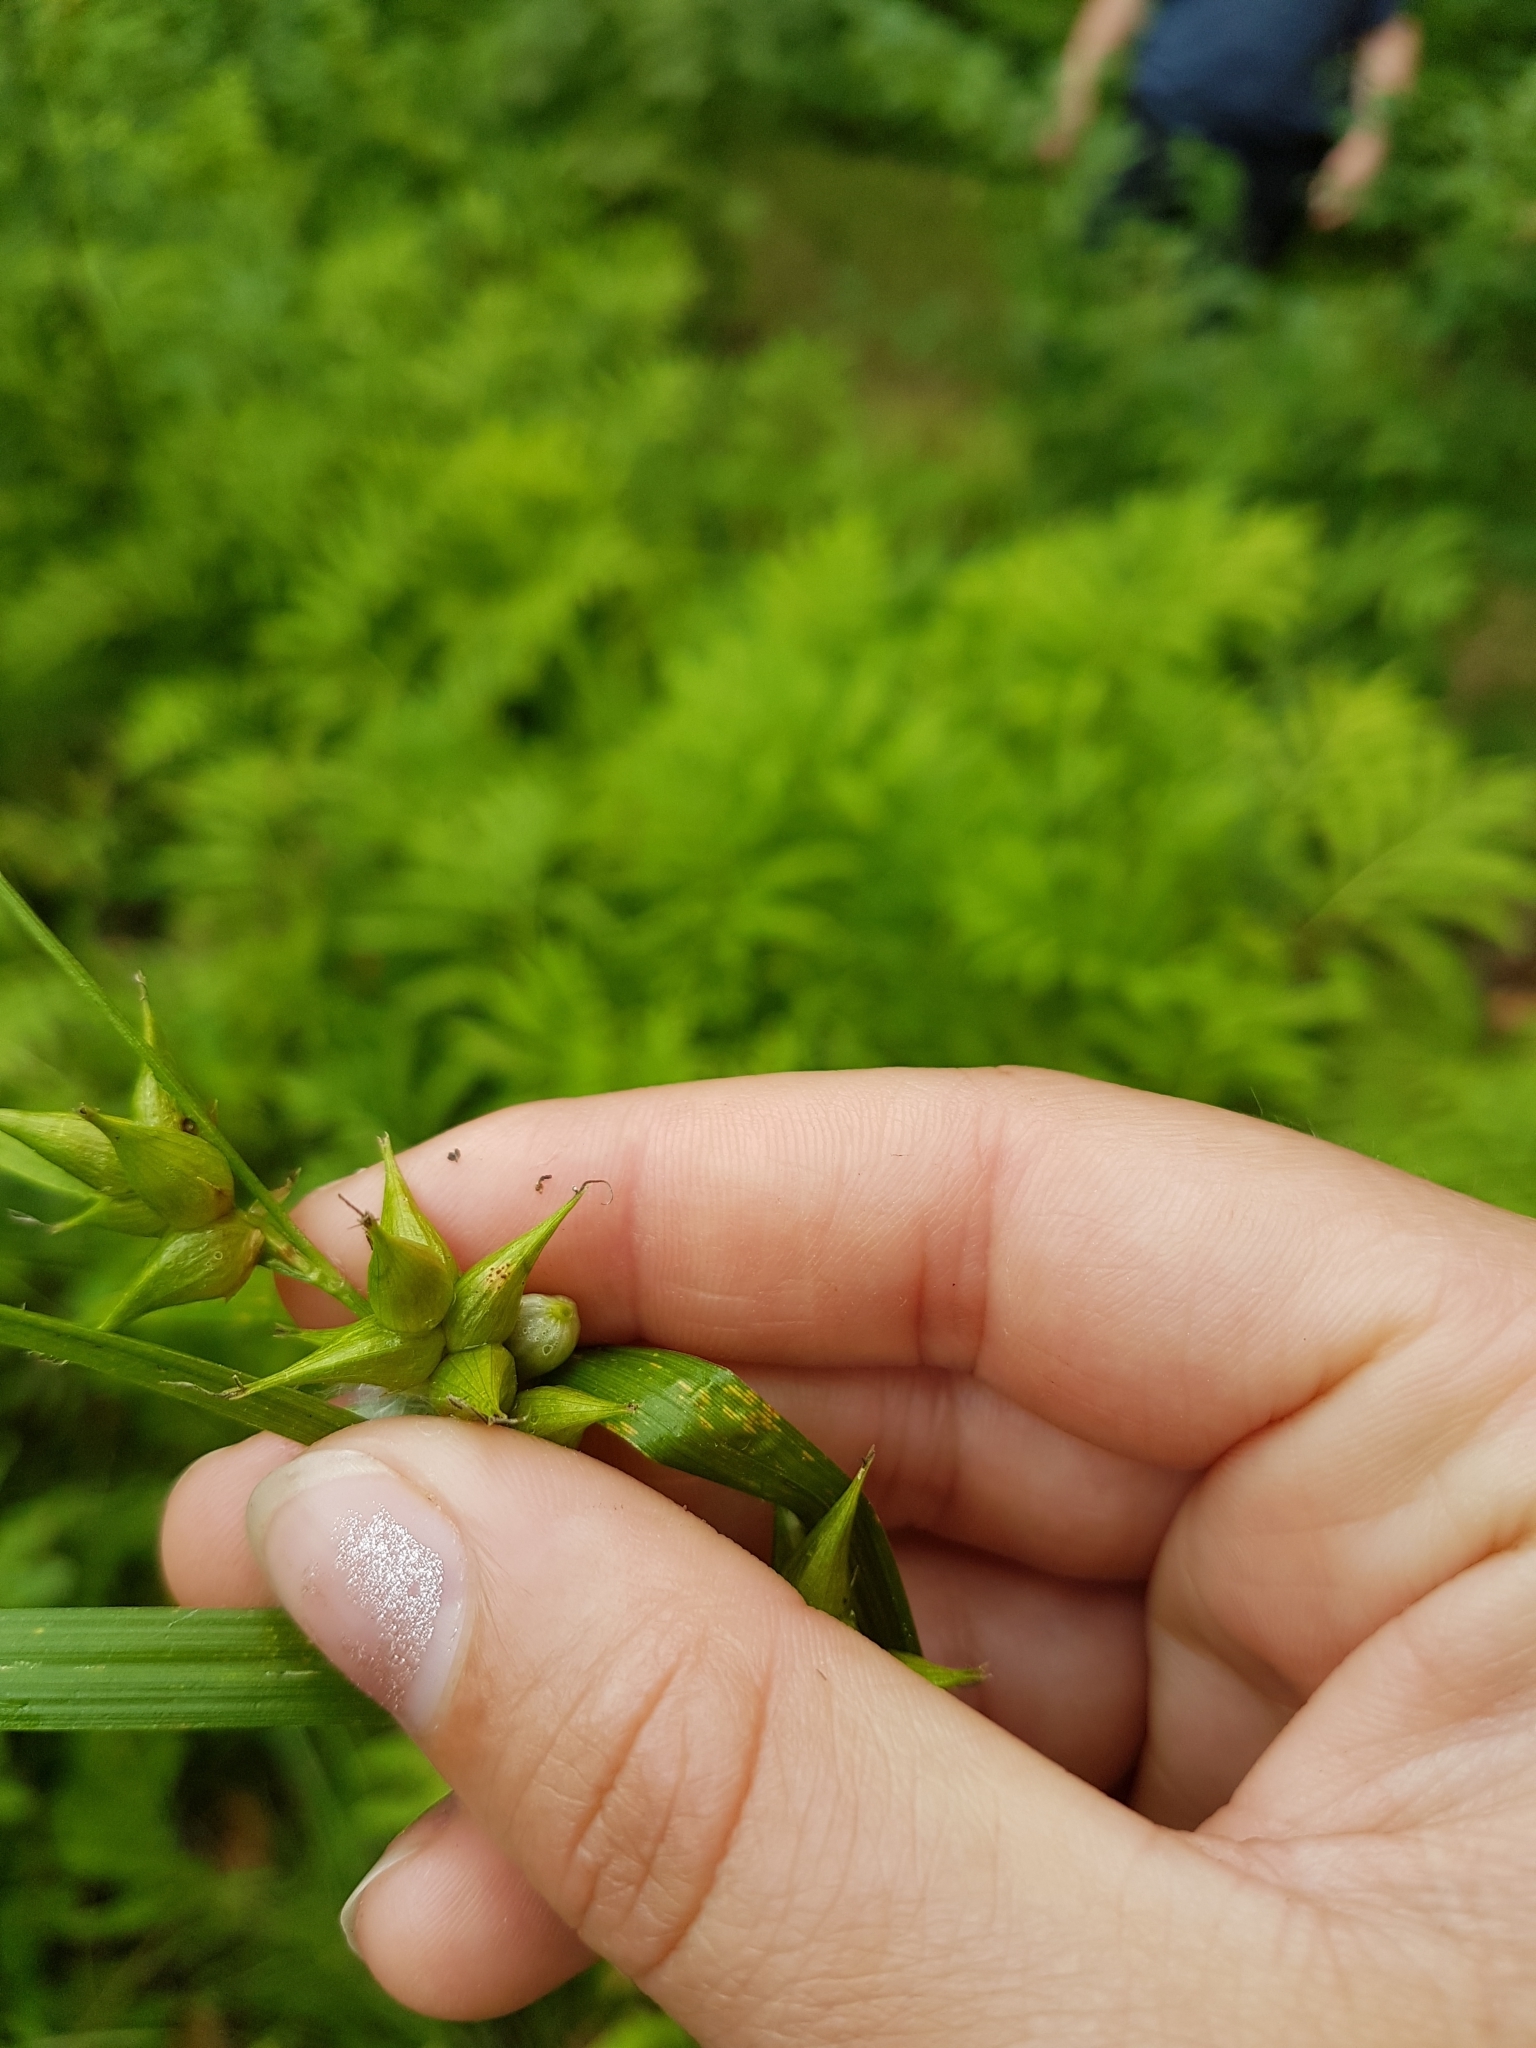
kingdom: Plantae
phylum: Tracheophyta
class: Liliopsida
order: Poales
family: Cyperaceae
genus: Carex
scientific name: Carex intumescens
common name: Greater bladder sedge
